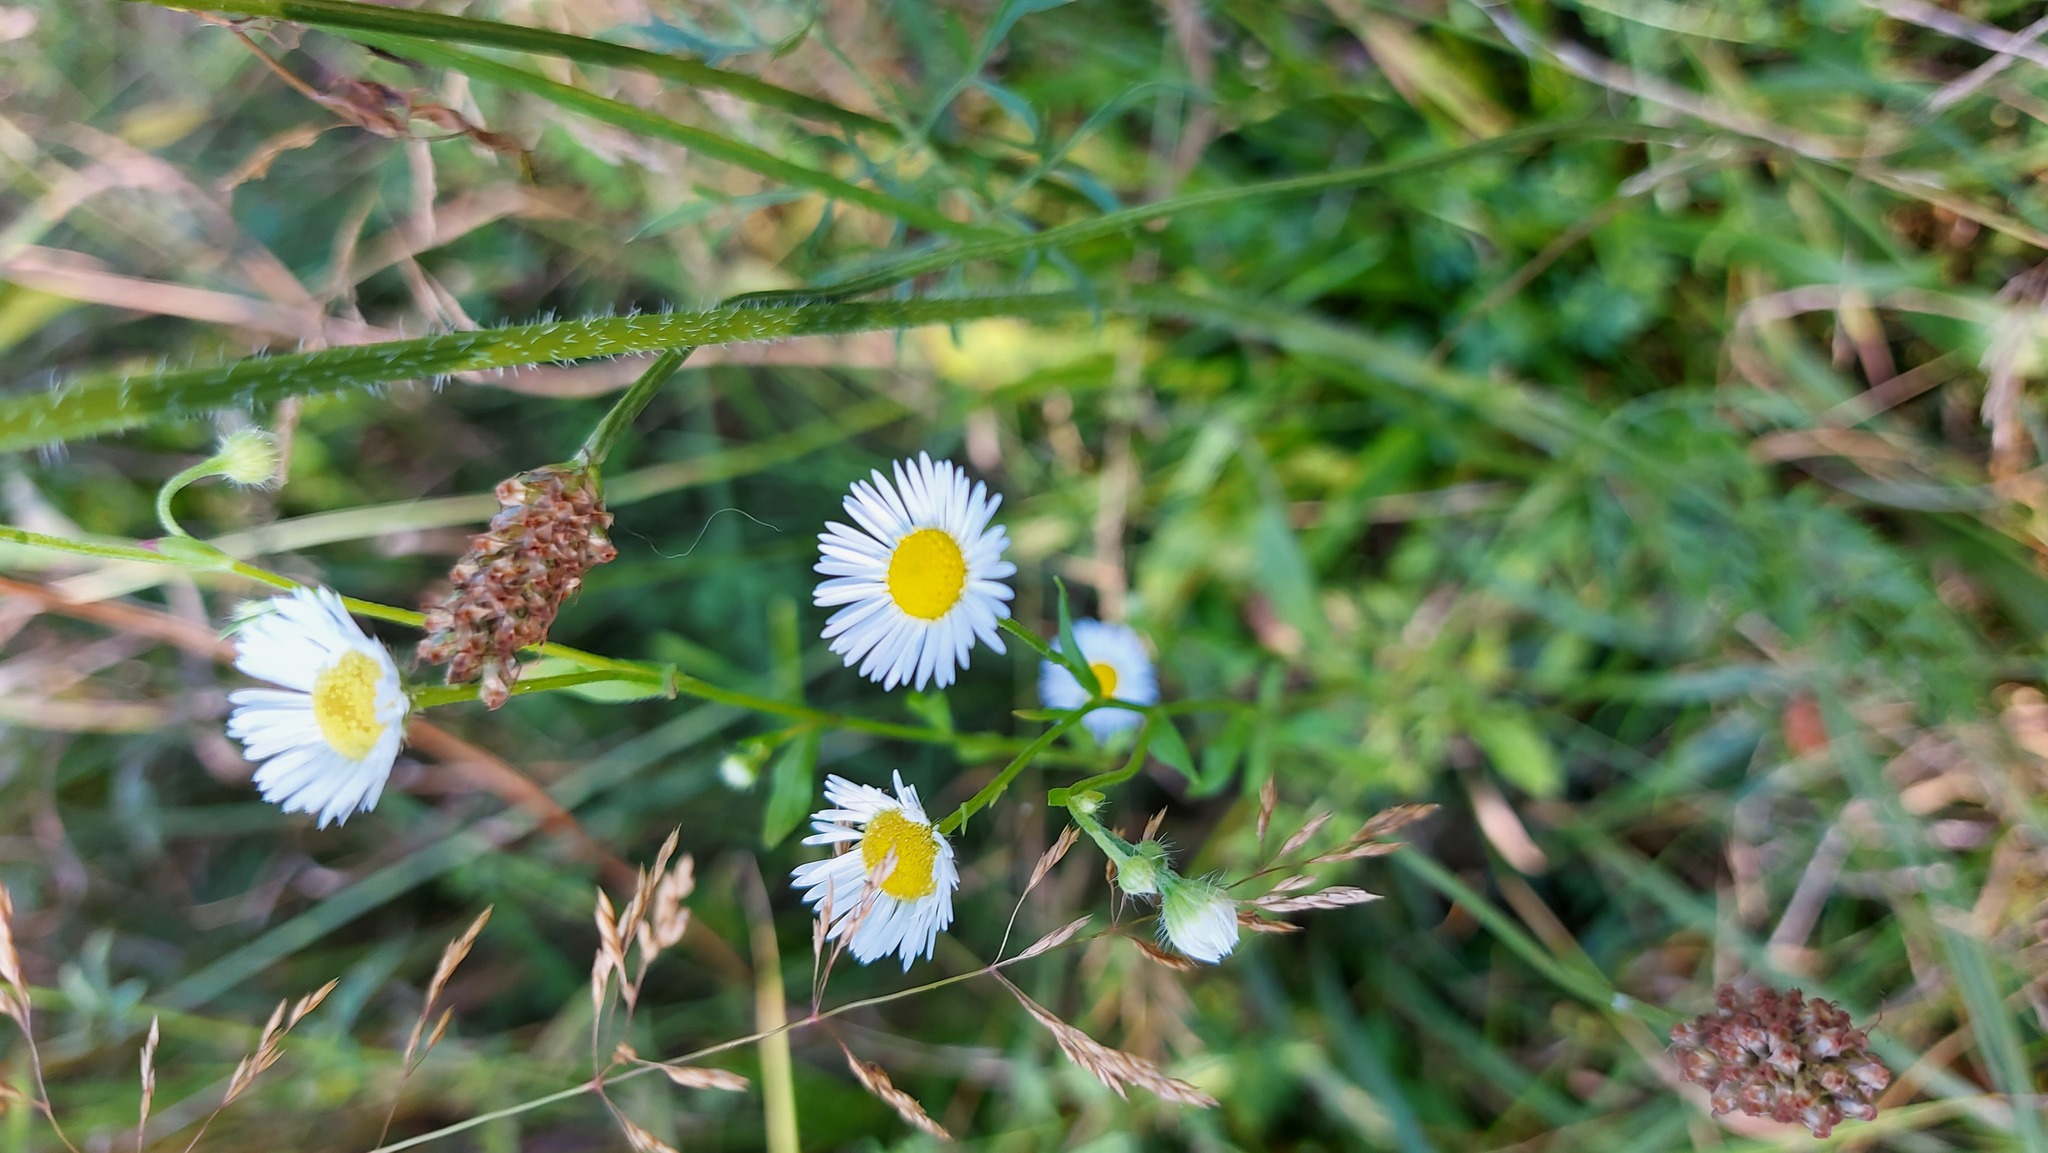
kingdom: Plantae
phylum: Tracheophyta
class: Magnoliopsida
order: Asterales
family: Asteraceae
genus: Erigeron
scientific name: Erigeron annuus
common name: Tall fleabane
